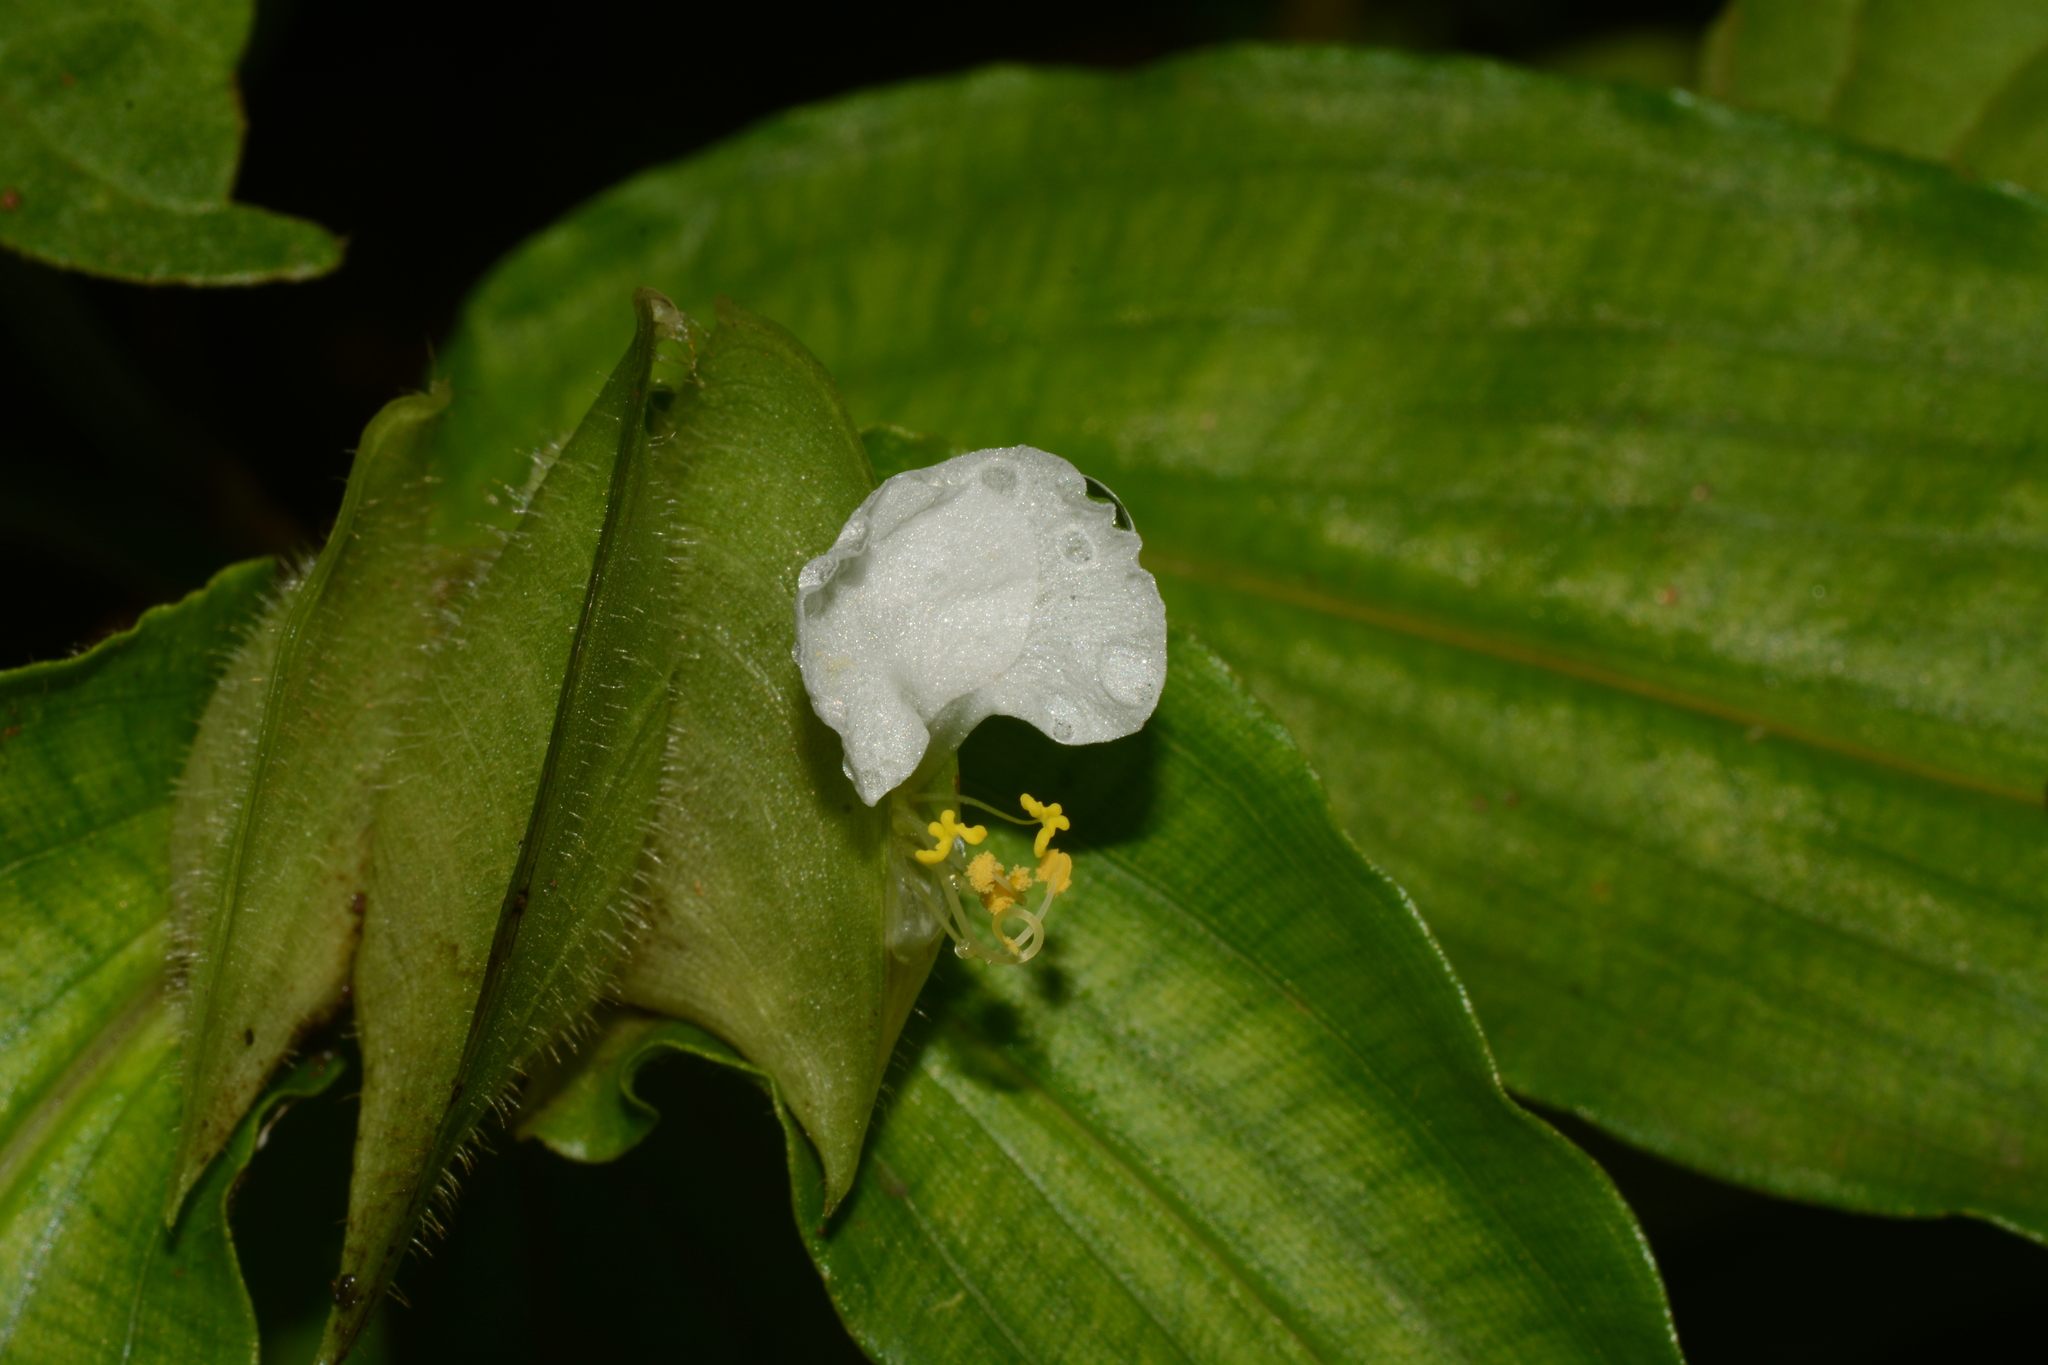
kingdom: Plantae
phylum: Tracheophyta
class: Liliopsida
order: Commelinales
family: Commelinaceae
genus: Commelina
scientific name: Commelina suffruticosa
